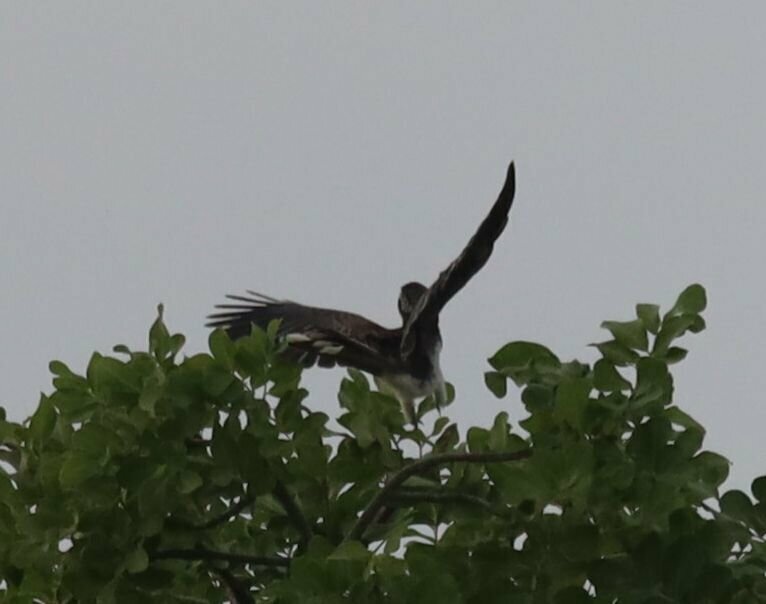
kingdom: Animalia
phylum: Chordata
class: Aves
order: Bucerotiformes
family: Bucerotidae
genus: Lophoceros
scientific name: Lophoceros alboterminatus
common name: Crowned hornbill
